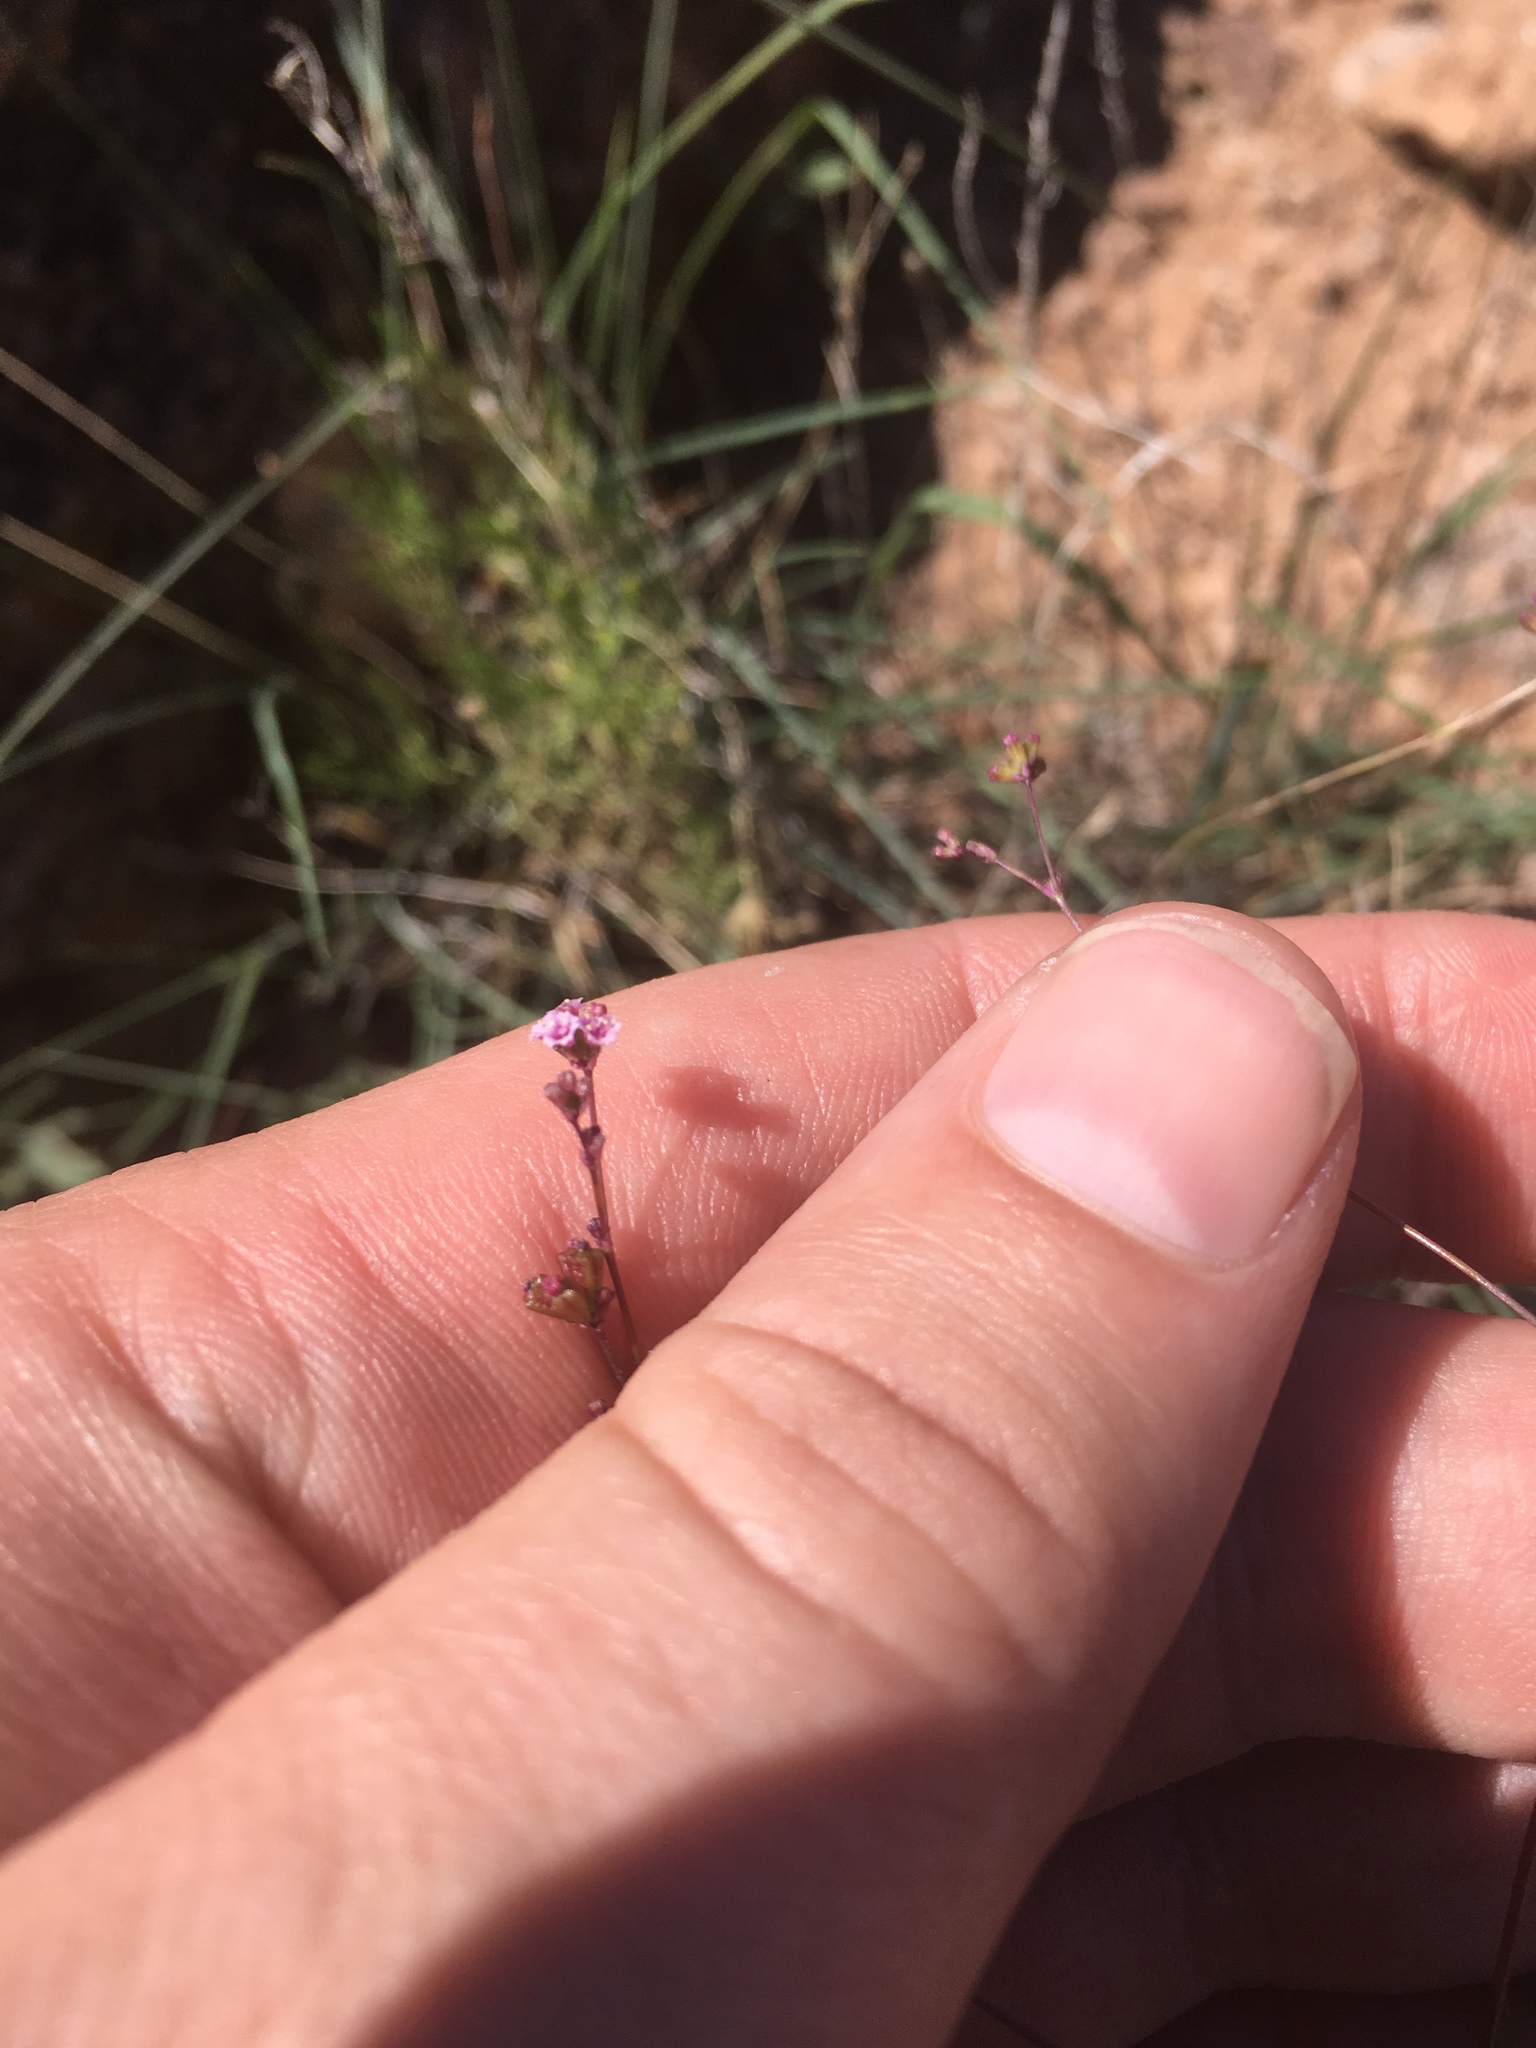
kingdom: Plantae
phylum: Tracheophyta
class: Magnoliopsida
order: Caryophyllales
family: Nyctaginaceae
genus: Boerhavia
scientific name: Boerhavia triquetra
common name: Creeping sticky-stem
